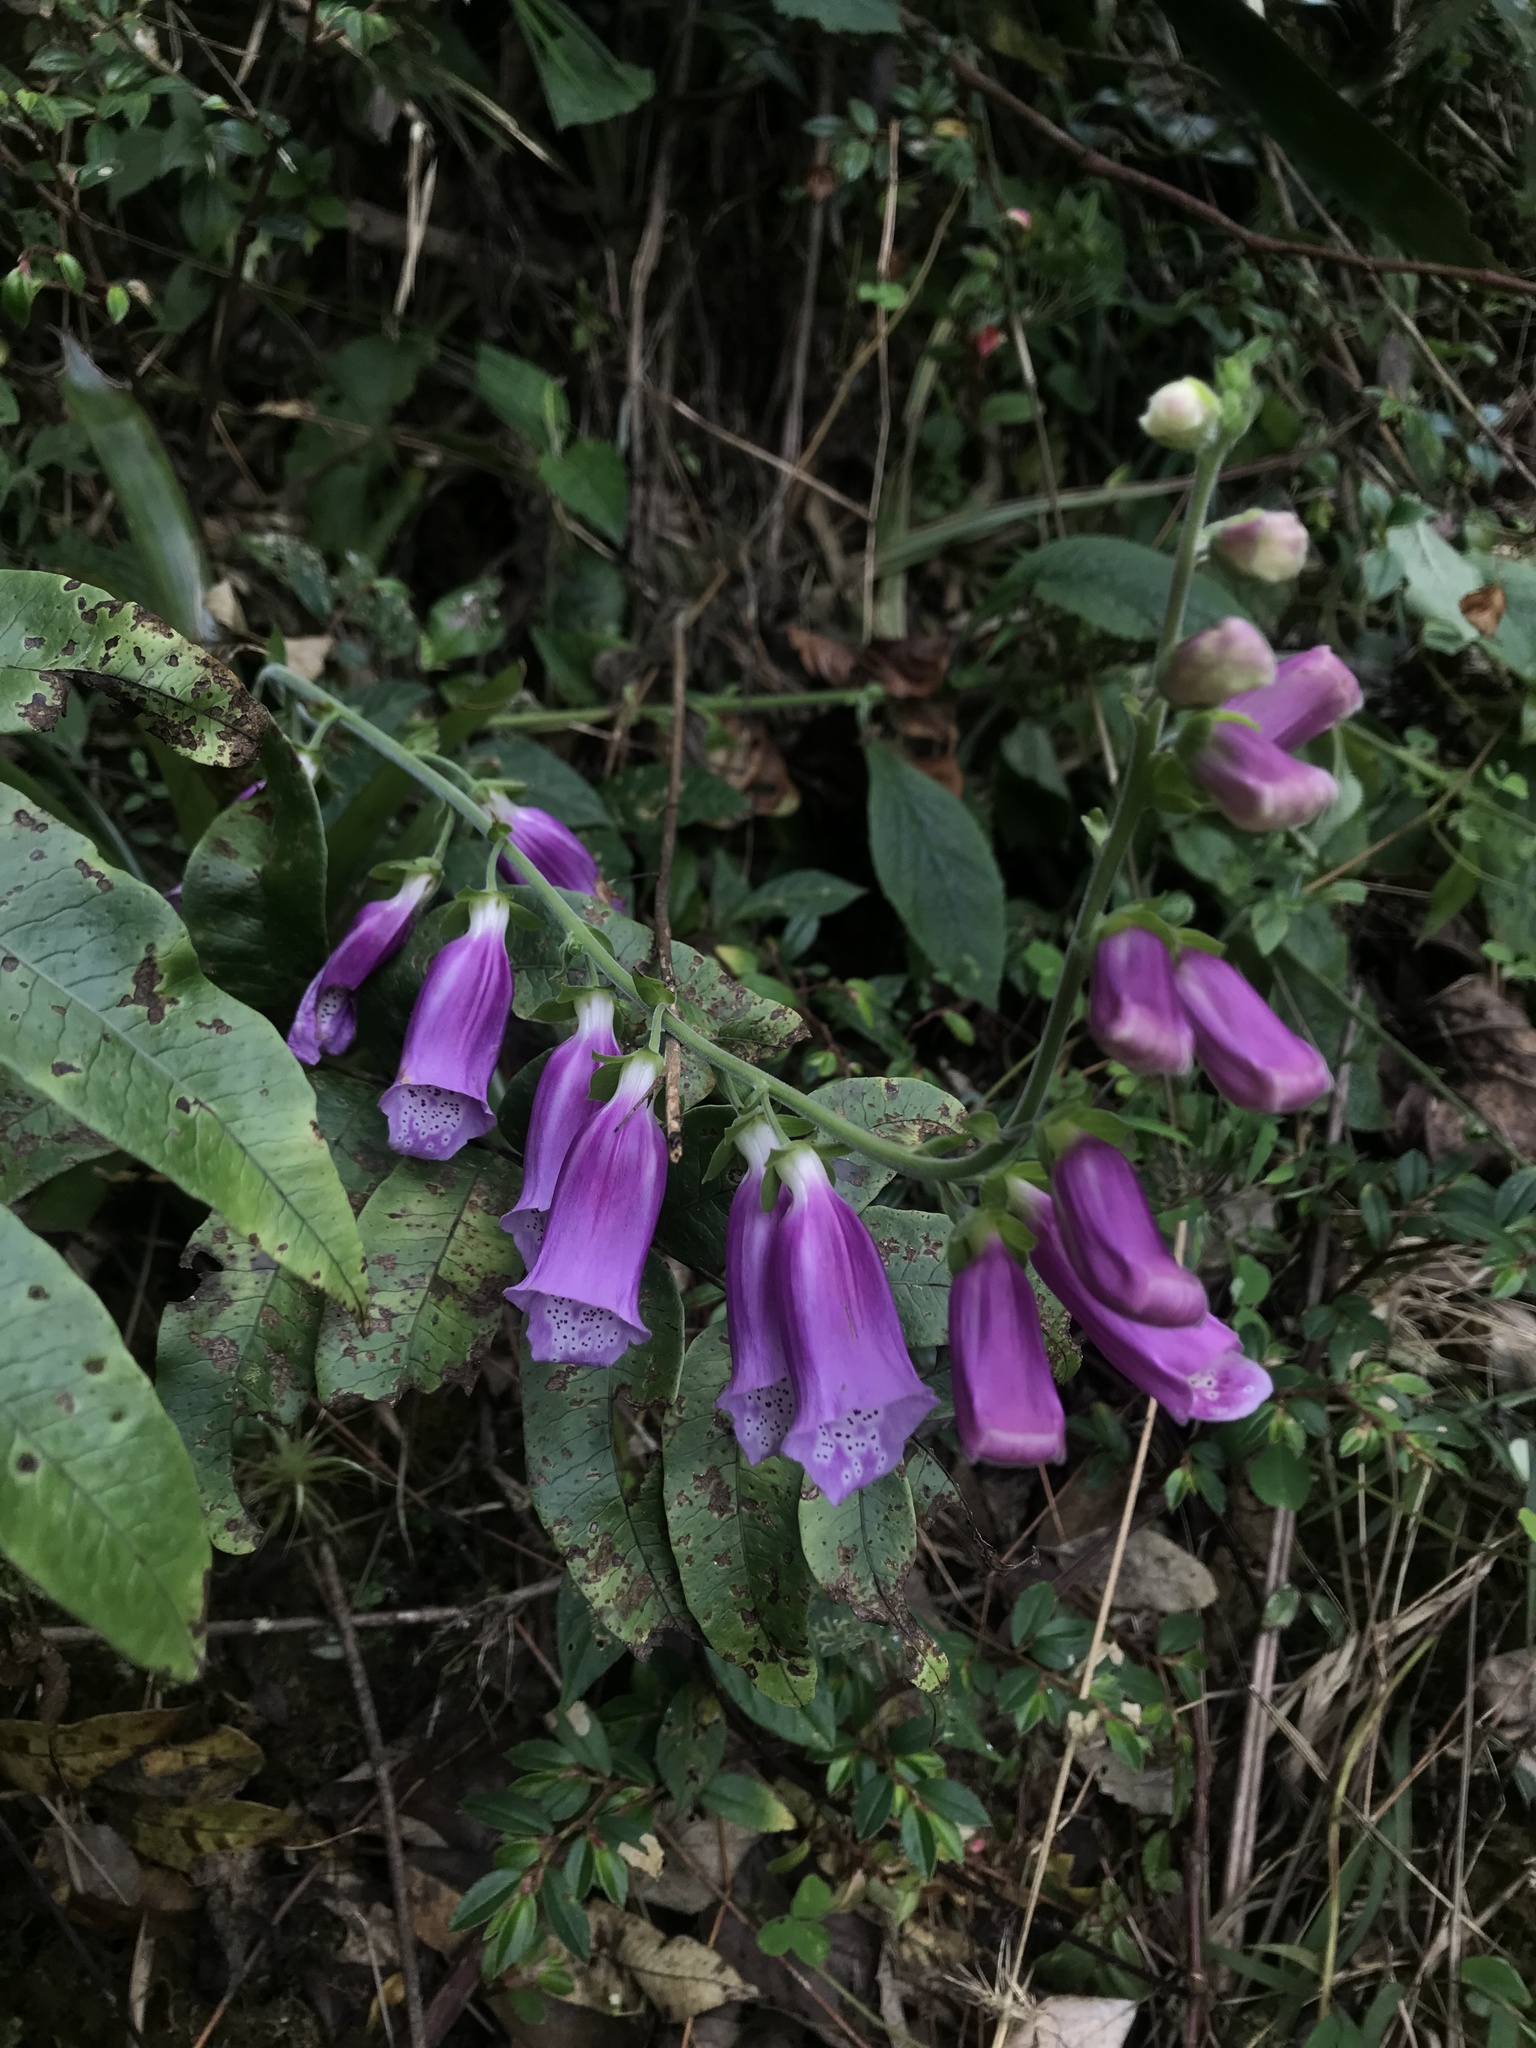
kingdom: Plantae
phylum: Tracheophyta
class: Magnoliopsida
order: Lamiales
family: Plantaginaceae
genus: Digitalis
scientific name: Digitalis purpurea
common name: Foxglove
